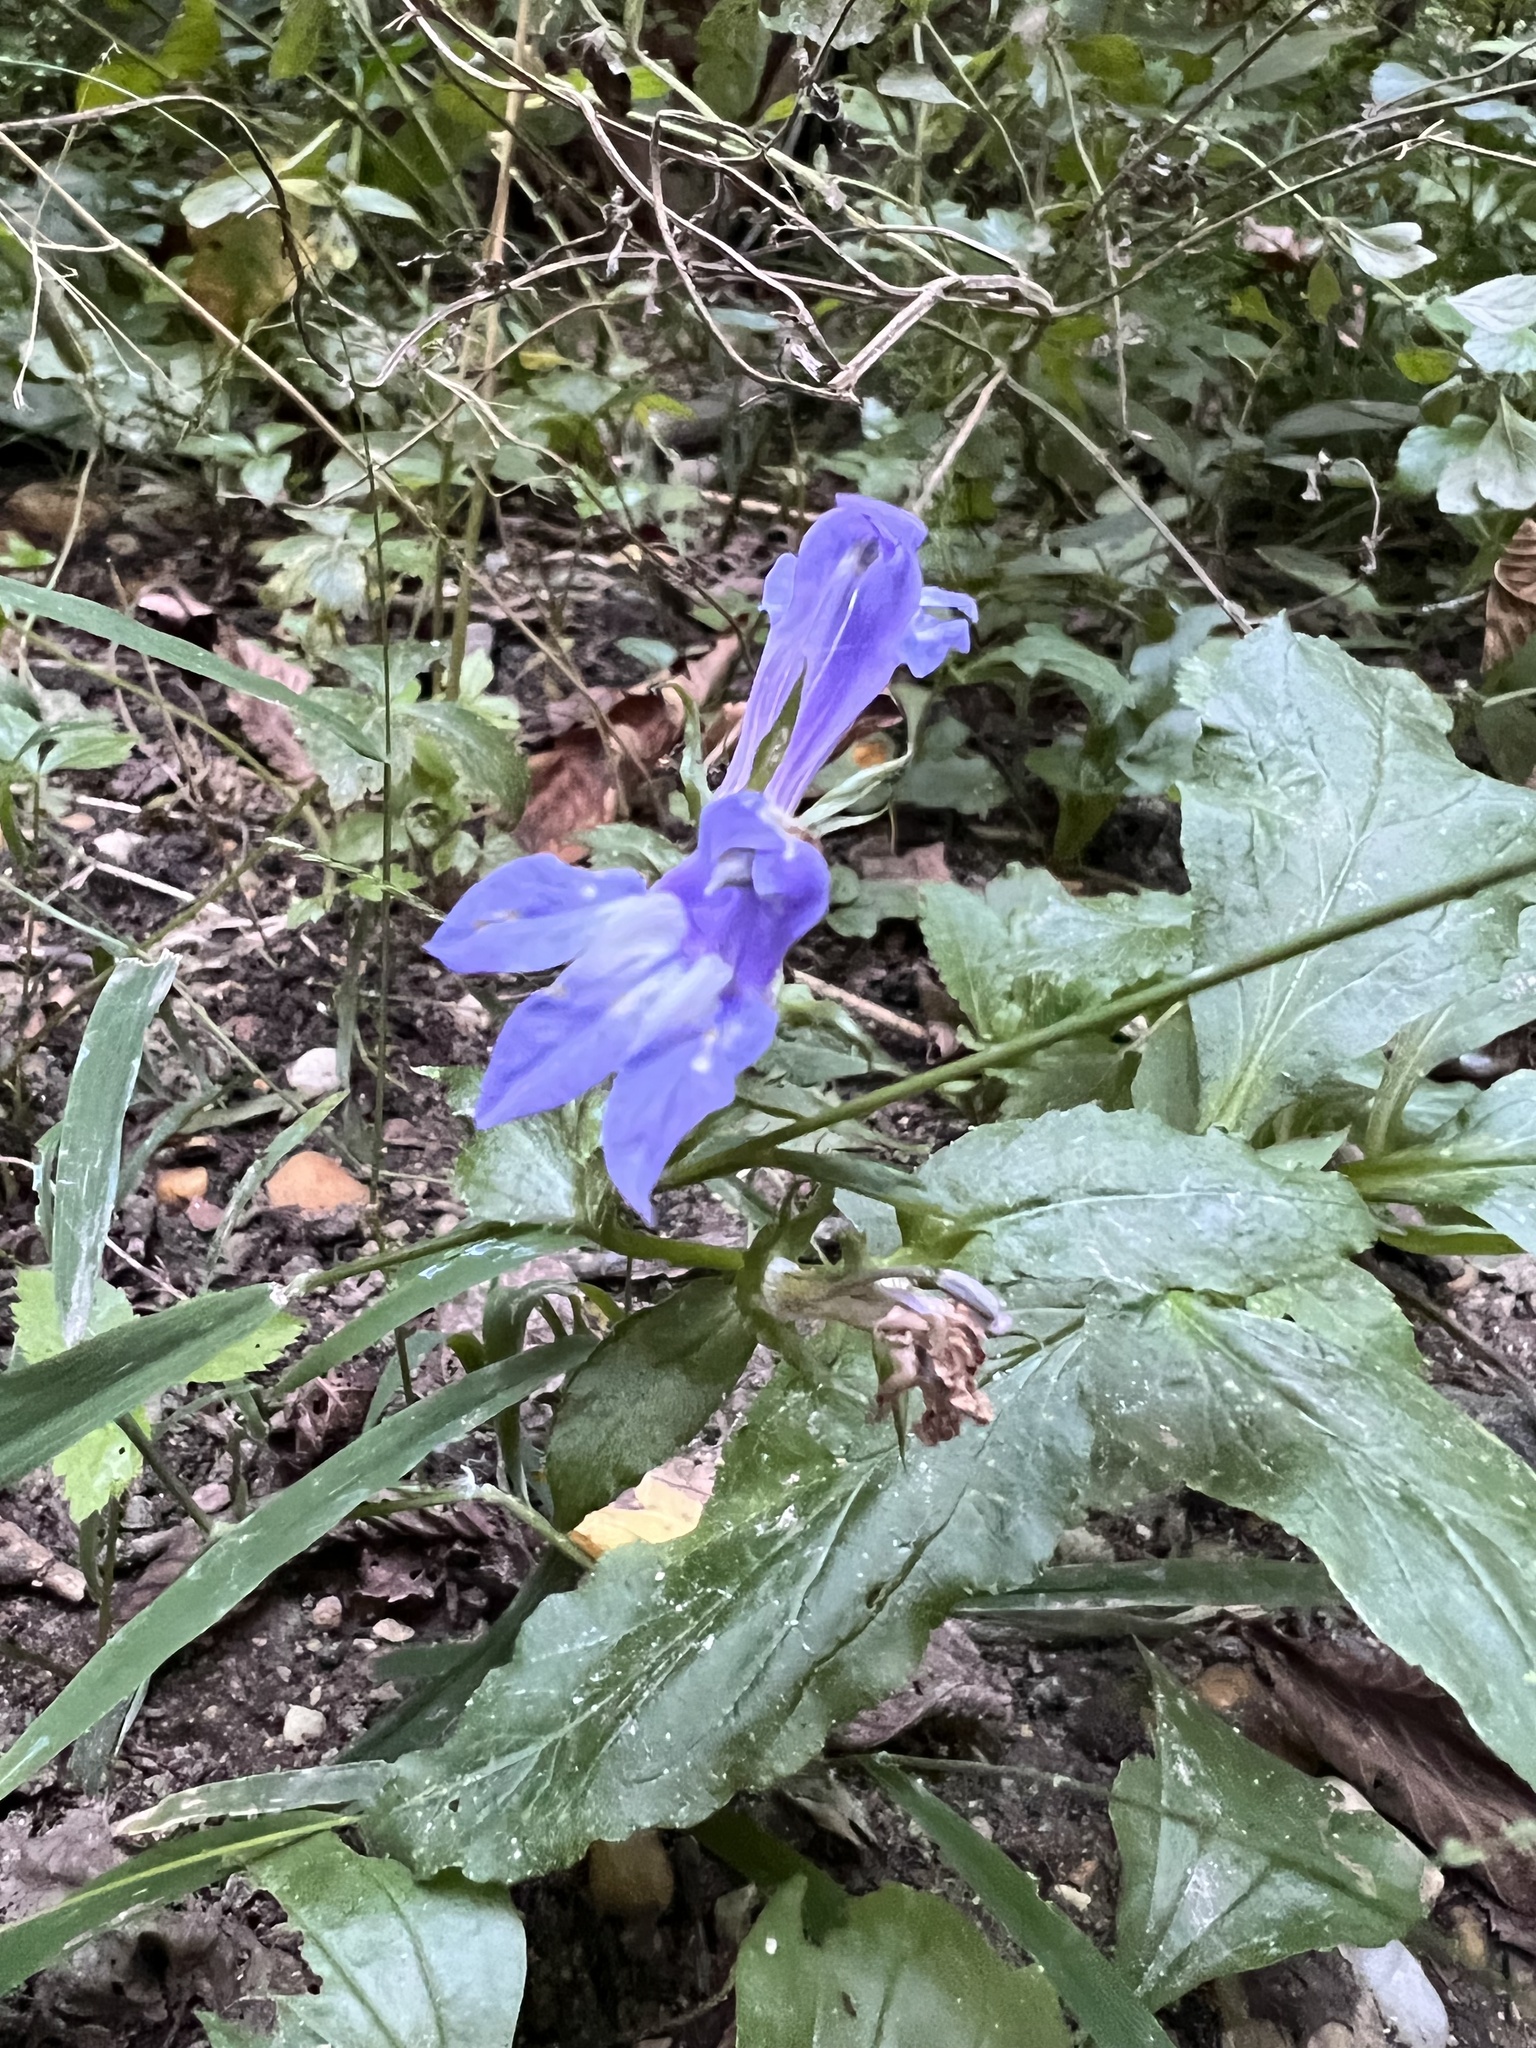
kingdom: Plantae
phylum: Tracheophyta
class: Magnoliopsida
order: Asterales
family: Campanulaceae
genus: Lobelia
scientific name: Lobelia siphilitica
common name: Great lobelia
